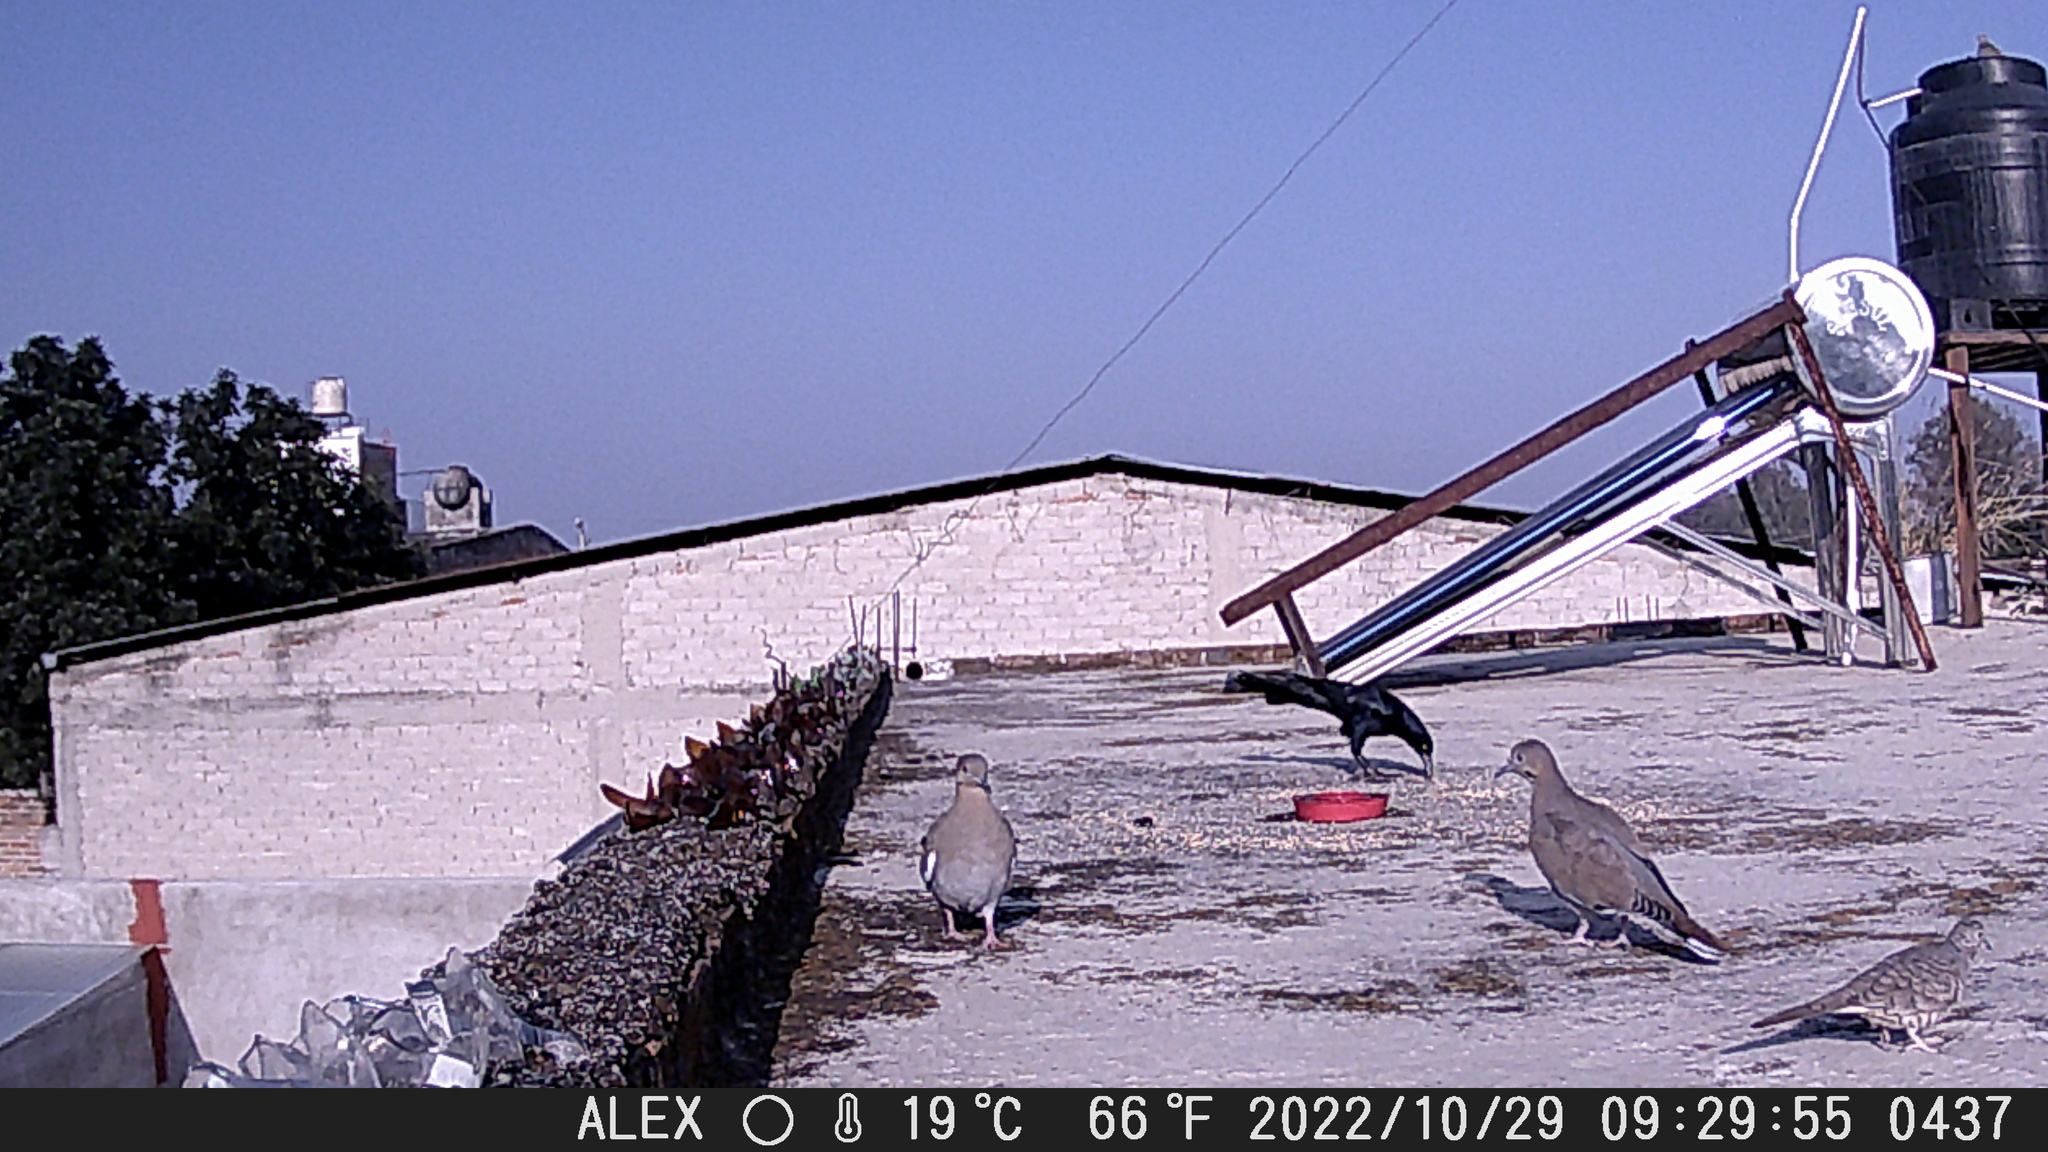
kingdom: Animalia
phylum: Chordata
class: Aves
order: Columbiformes
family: Columbidae
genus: Zenaida
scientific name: Zenaida asiatica
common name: White-winged dove
